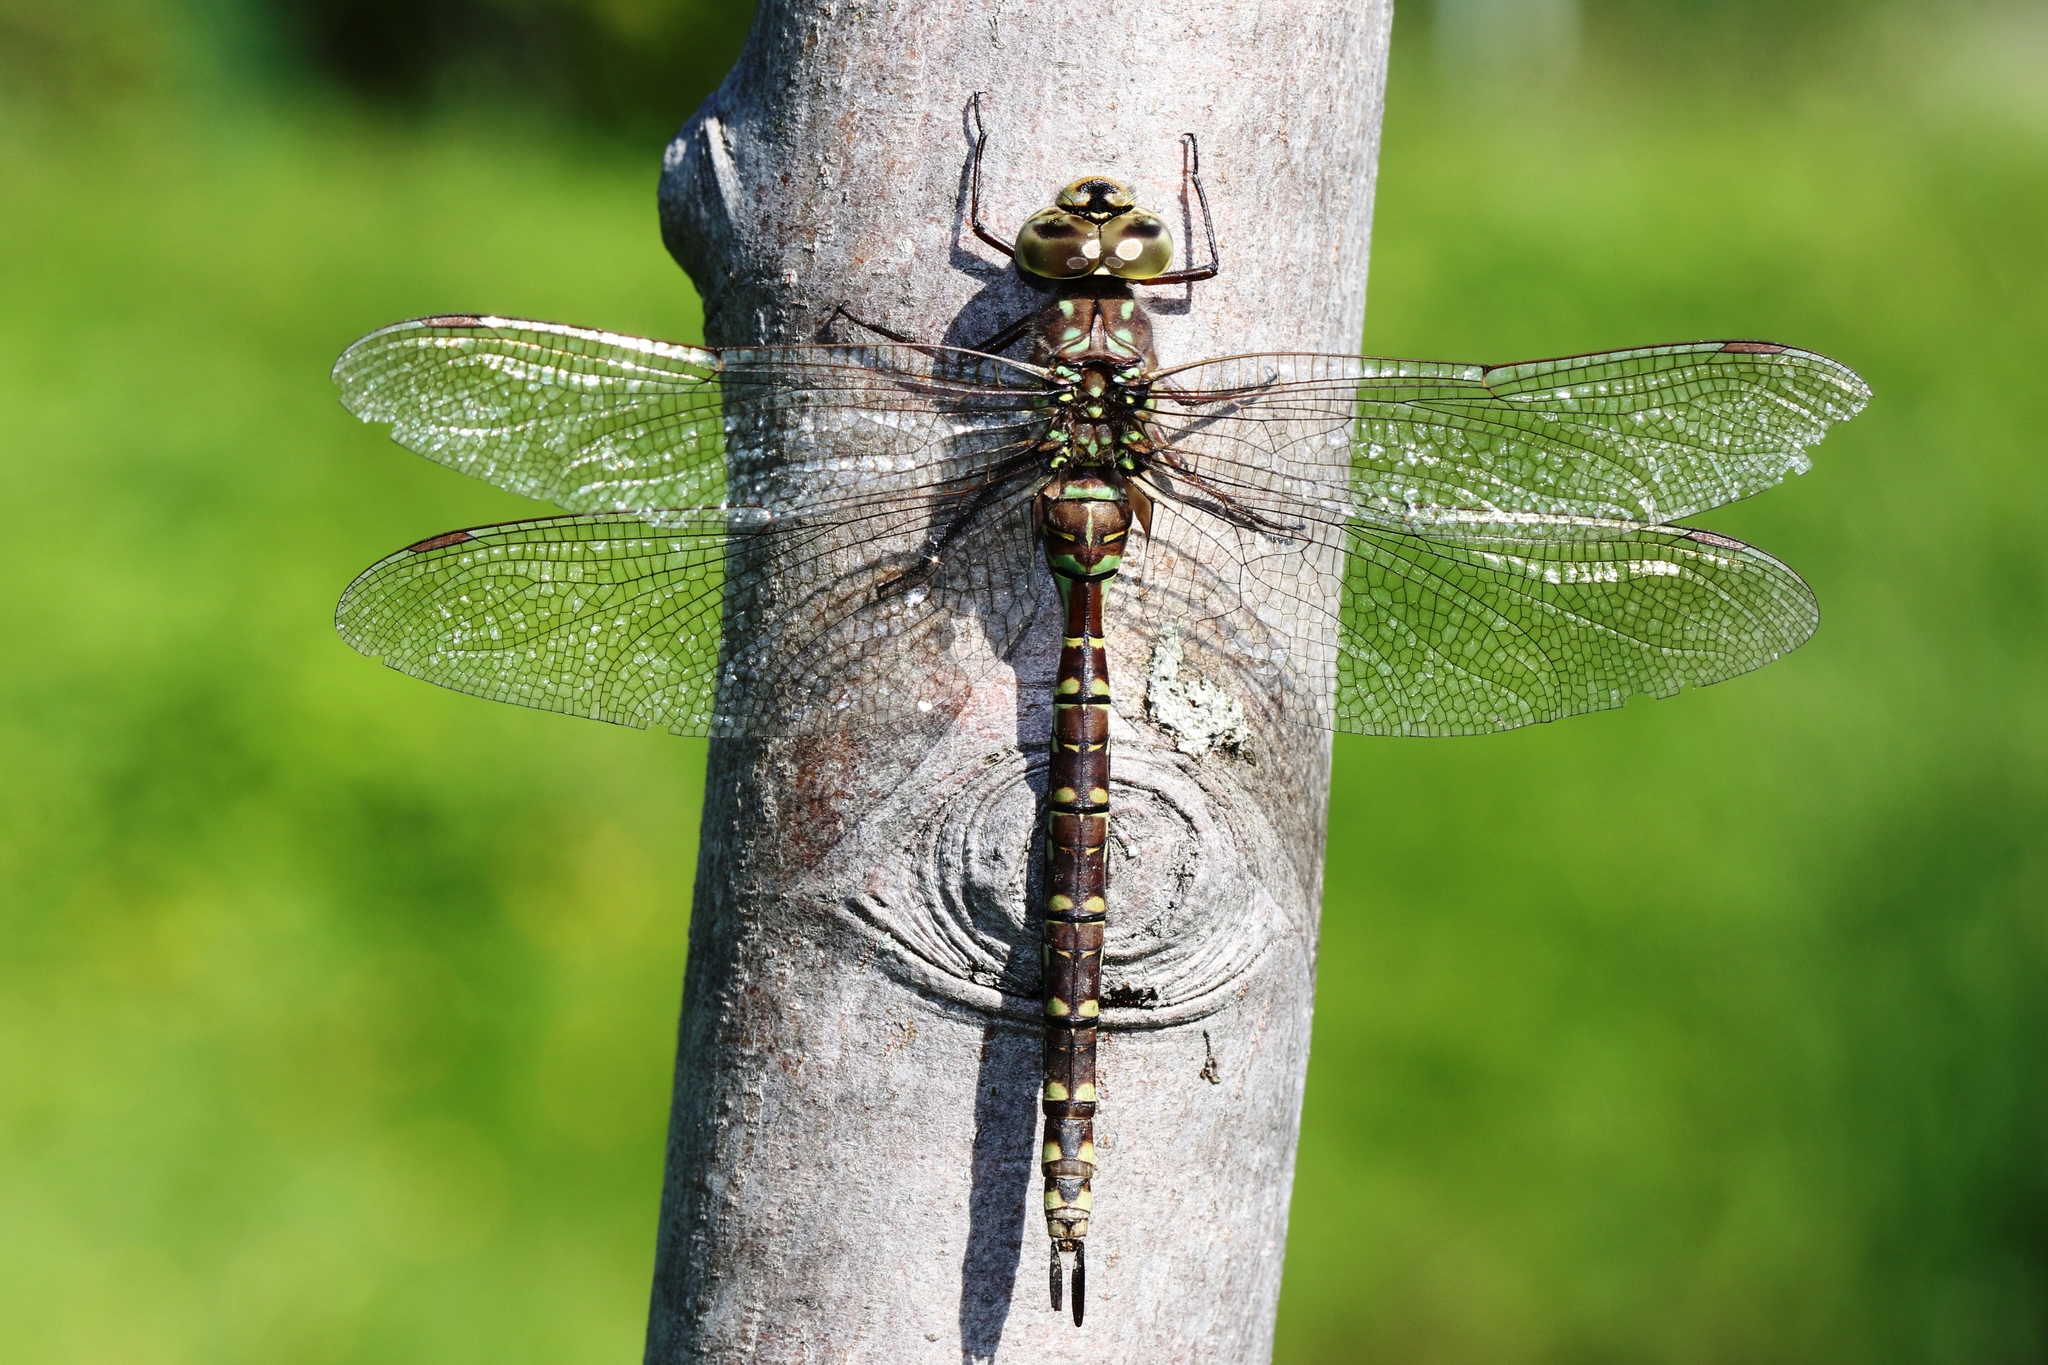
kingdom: Animalia
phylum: Arthropoda
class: Insecta
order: Odonata
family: Aeshnidae
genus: Aeshna
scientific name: Aeshna canadensis
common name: Canada darner
